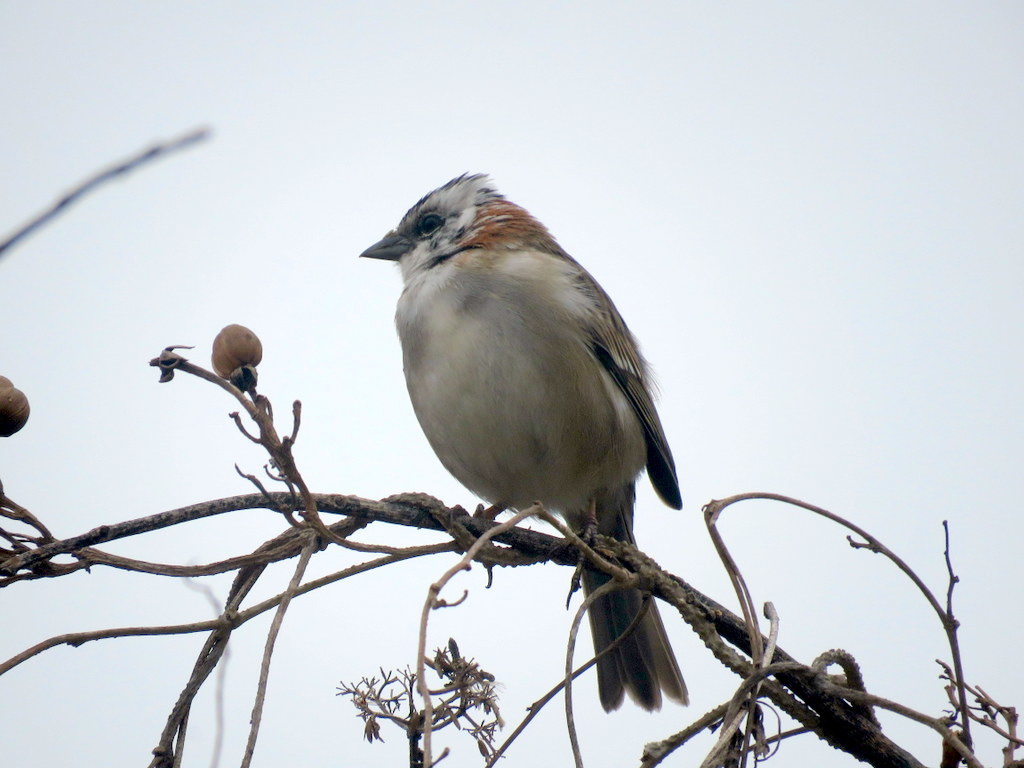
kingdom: Animalia
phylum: Chordata
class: Aves
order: Passeriformes
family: Passerellidae
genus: Zonotrichia
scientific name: Zonotrichia capensis
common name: Rufous-collared sparrow
